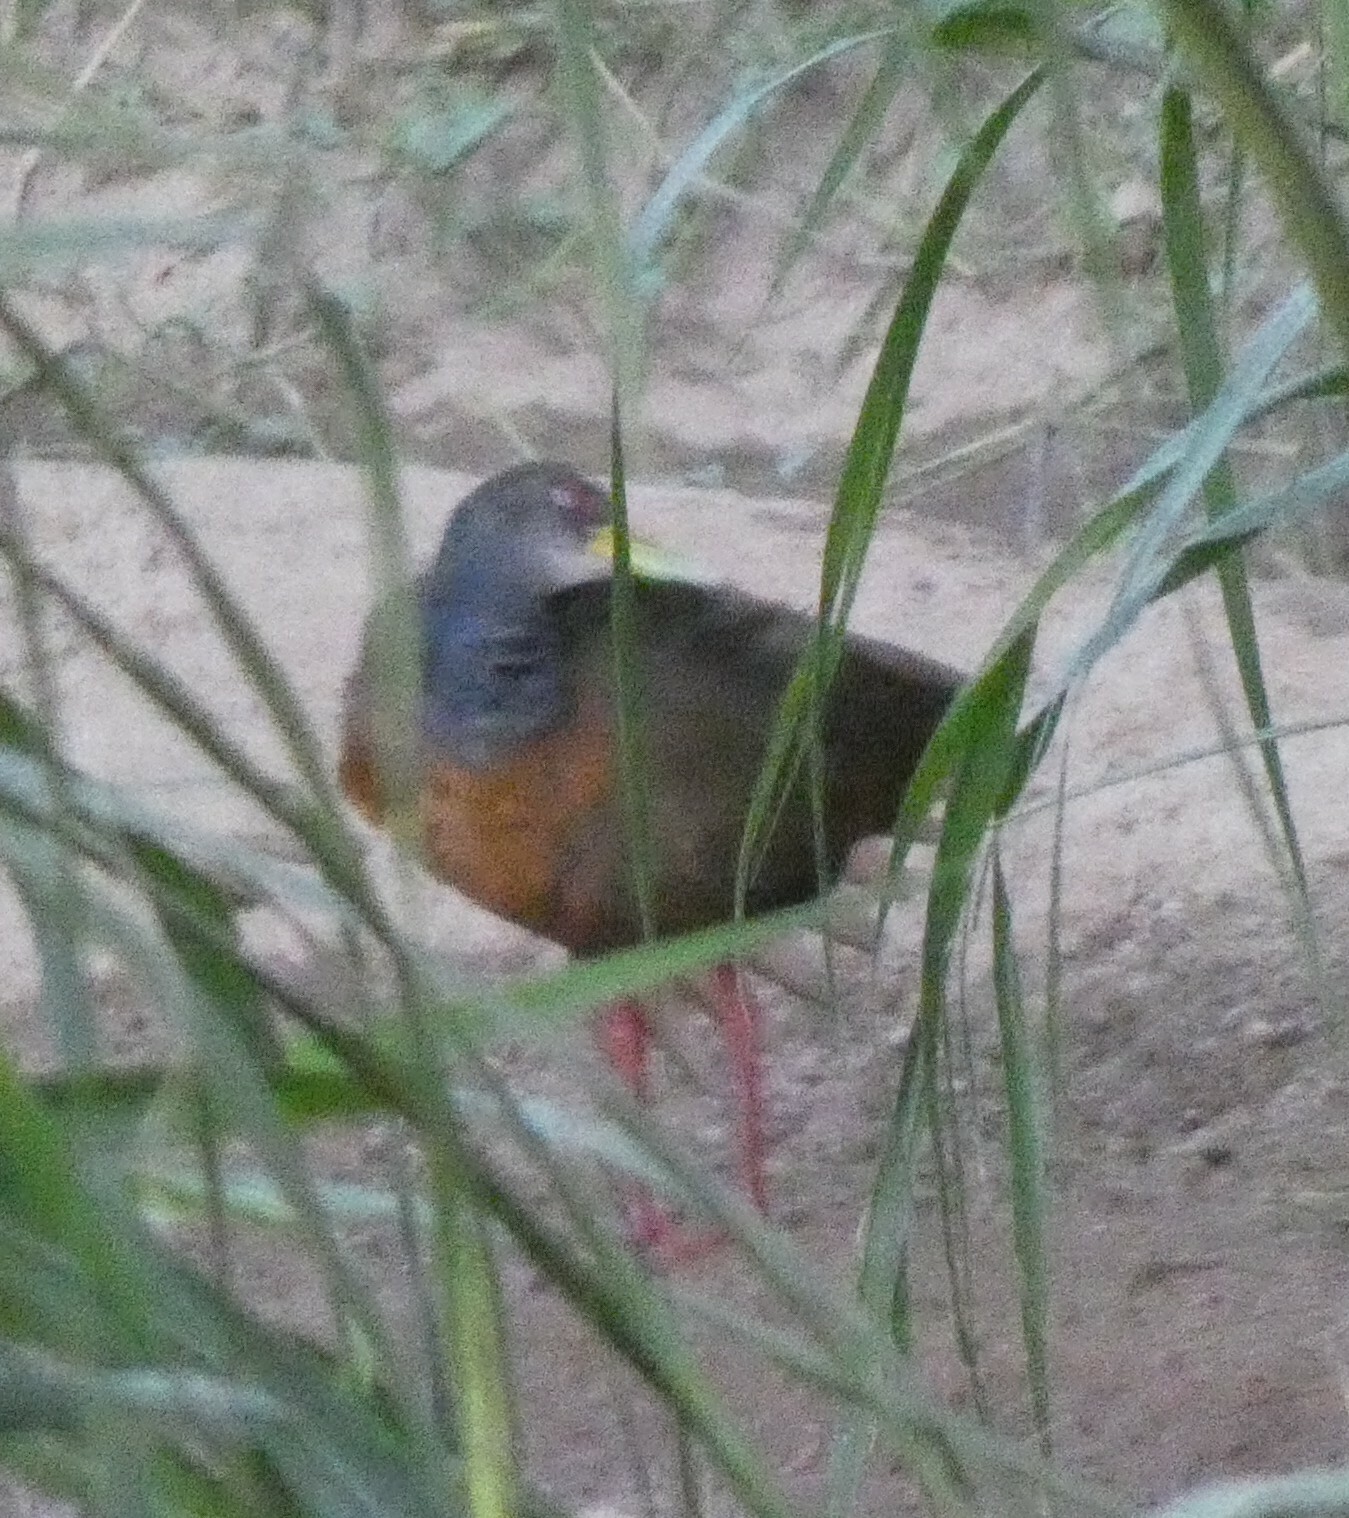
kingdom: Animalia
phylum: Chordata
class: Aves
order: Gruiformes
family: Rallidae
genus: Aramides
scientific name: Aramides cajanea
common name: Gray-necked wood-rail
